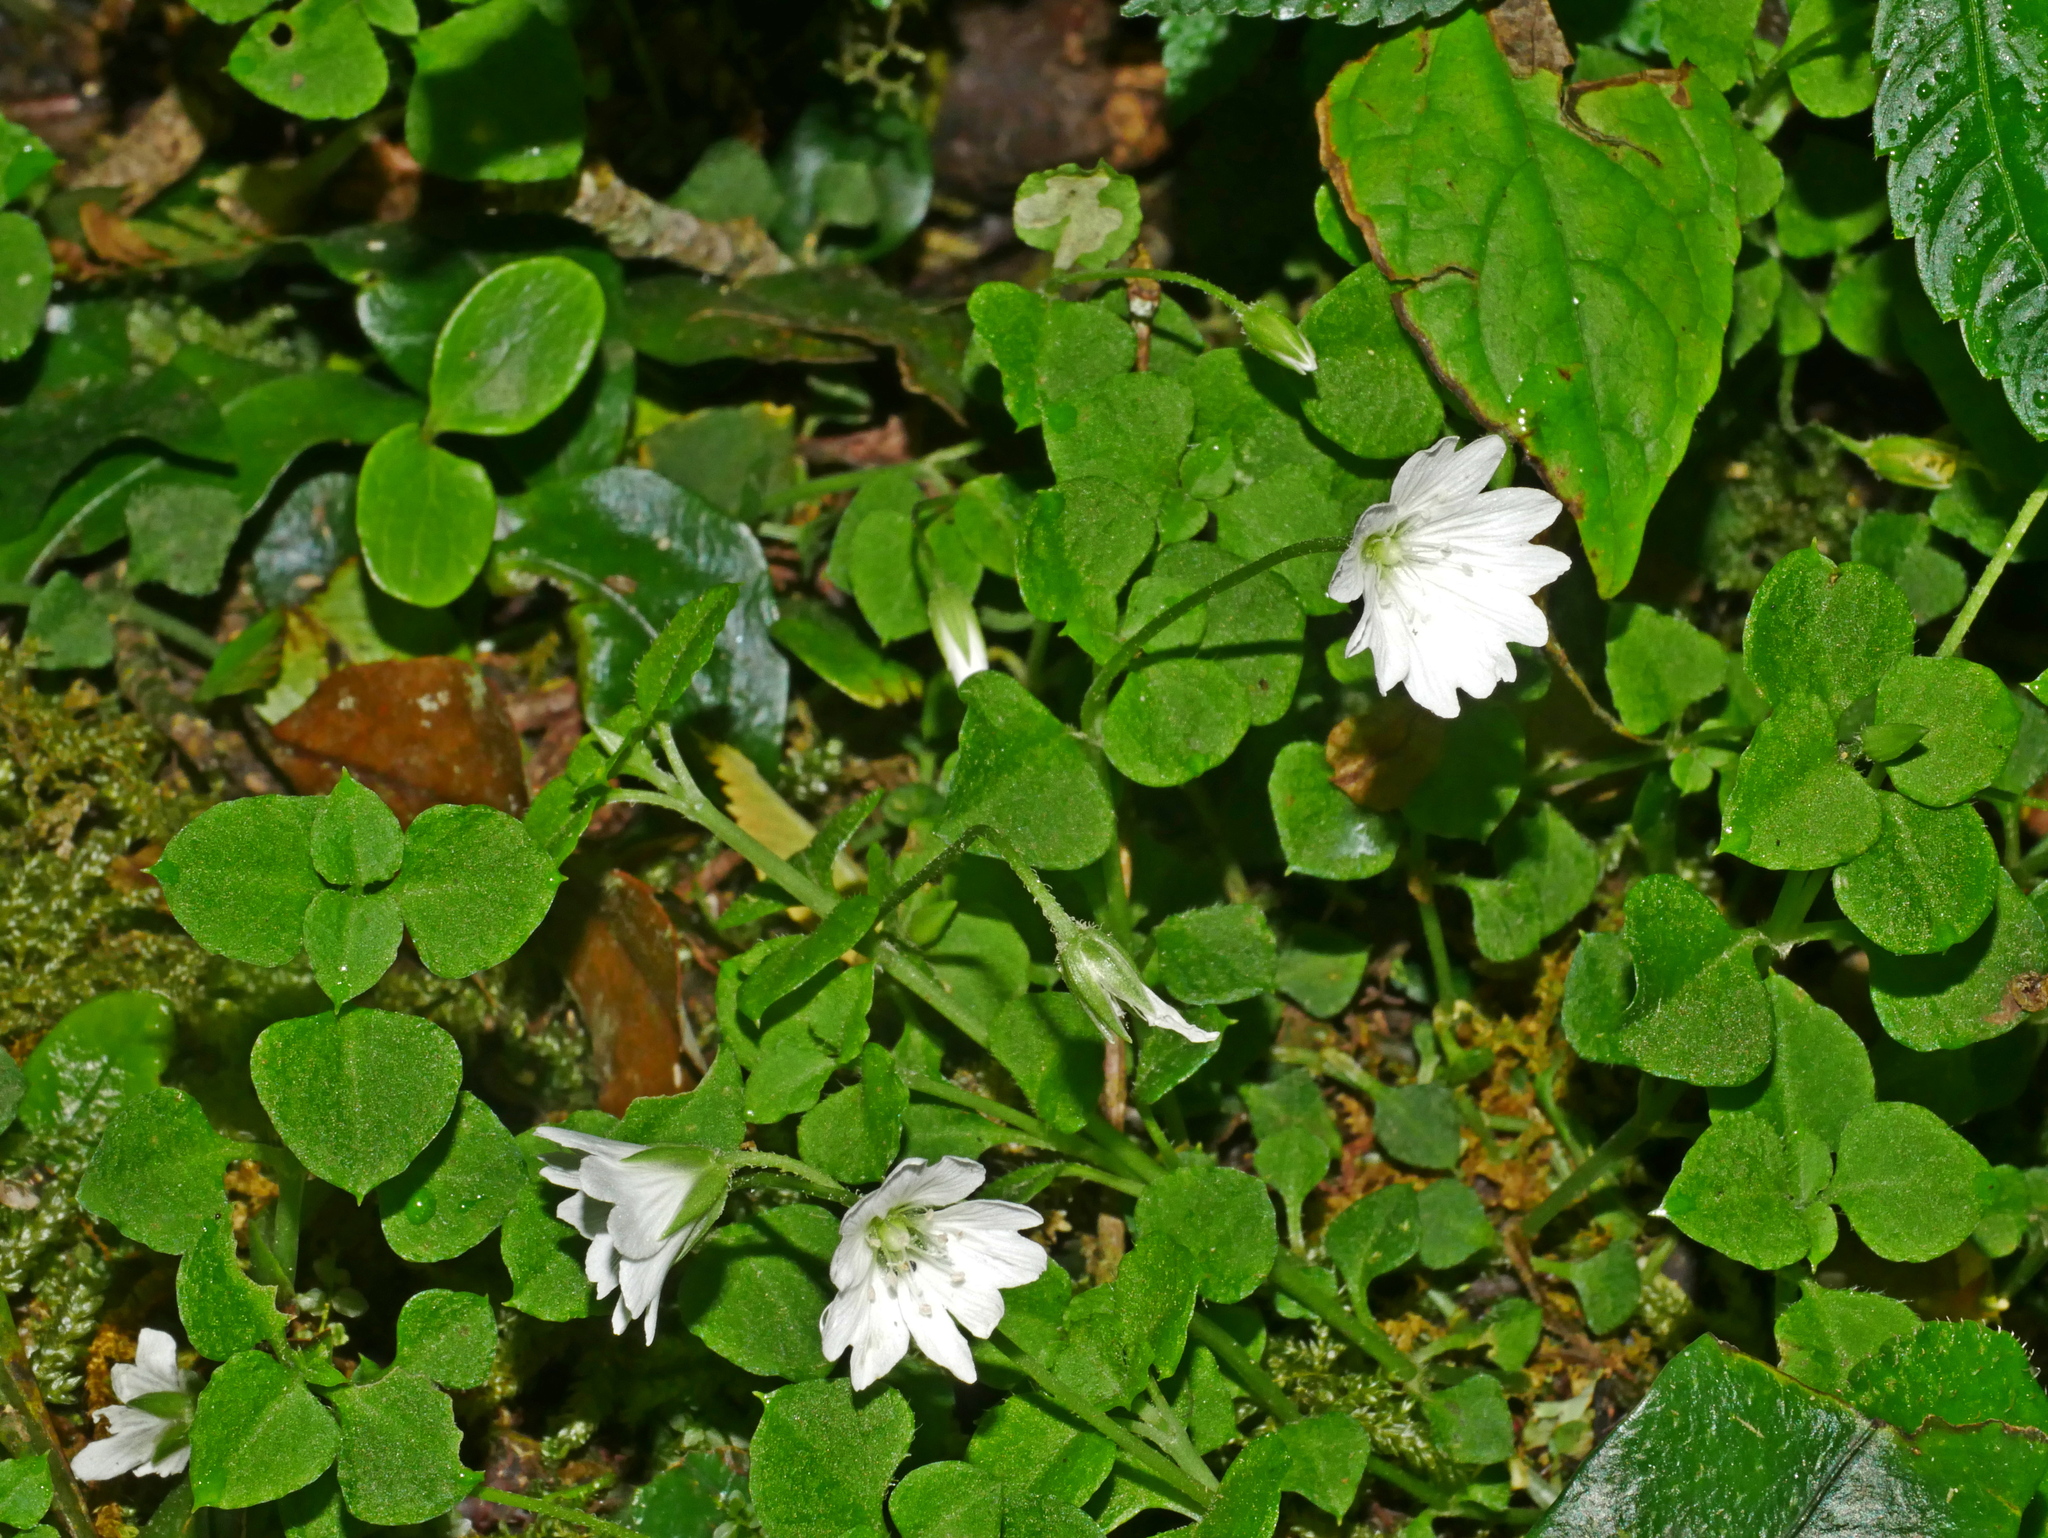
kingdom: Plantae
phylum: Tracheophyta
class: Magnoliopsida
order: Caryophyllales
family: Caryophyllaceae
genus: Nubelaria
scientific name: Nubelaria arisanensis
